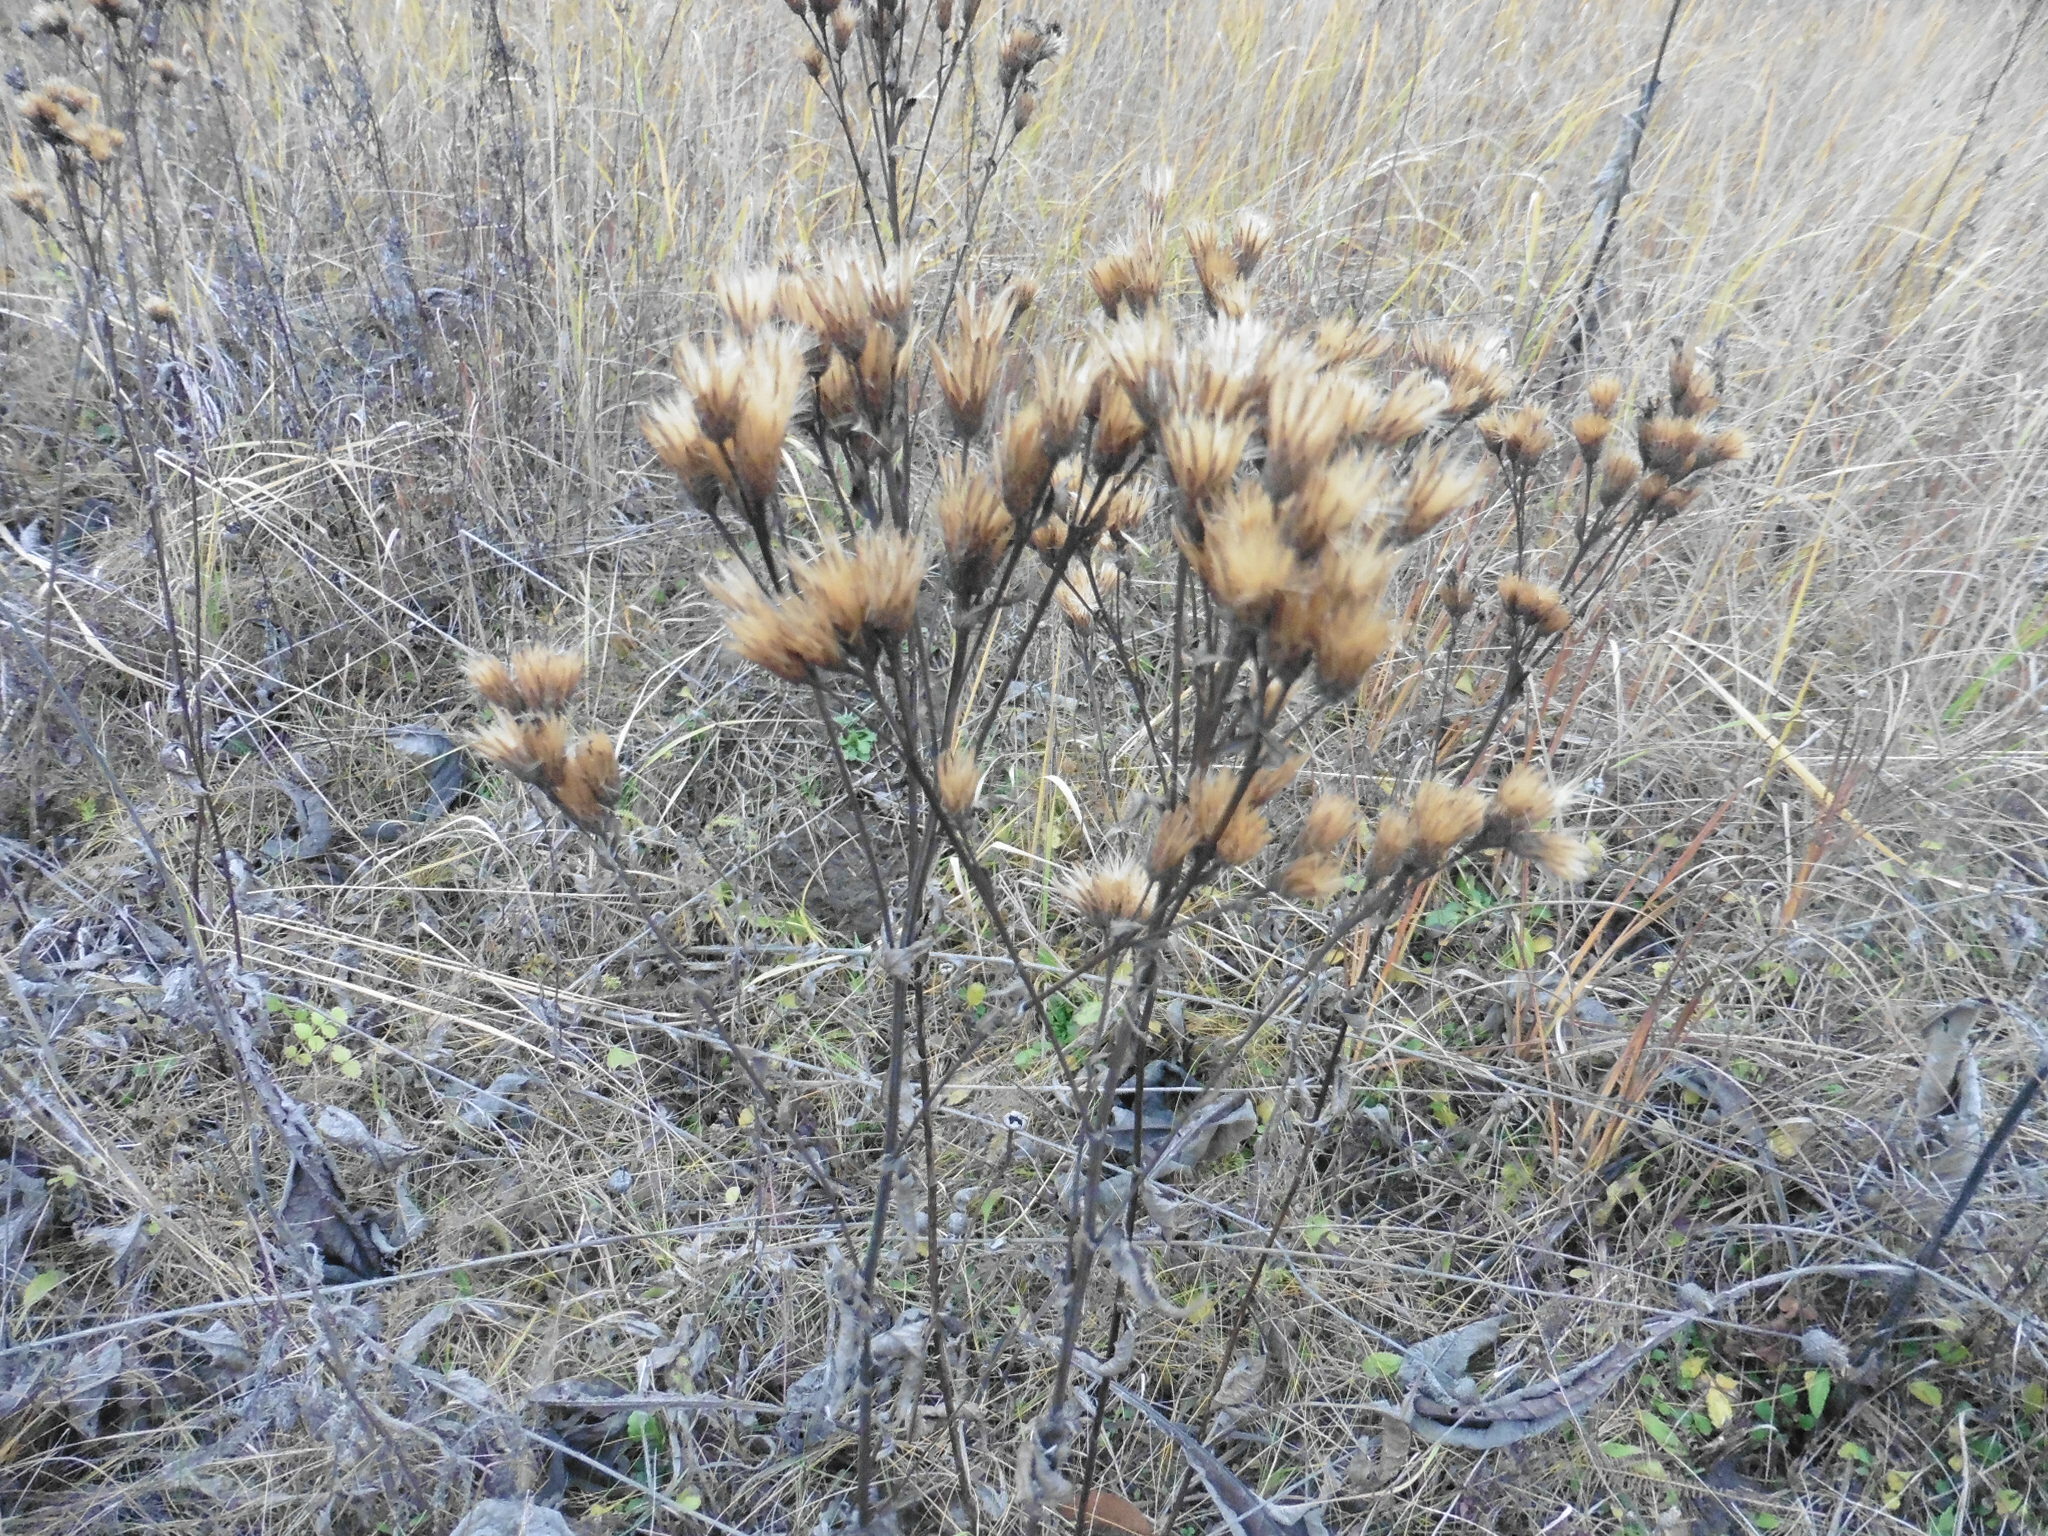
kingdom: Plantae
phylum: Tracheophyta
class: Magnoliopsida
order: Asterales
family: Asteraceae
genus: Serratula
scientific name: Serratula tinctoria
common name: Saw-wort
